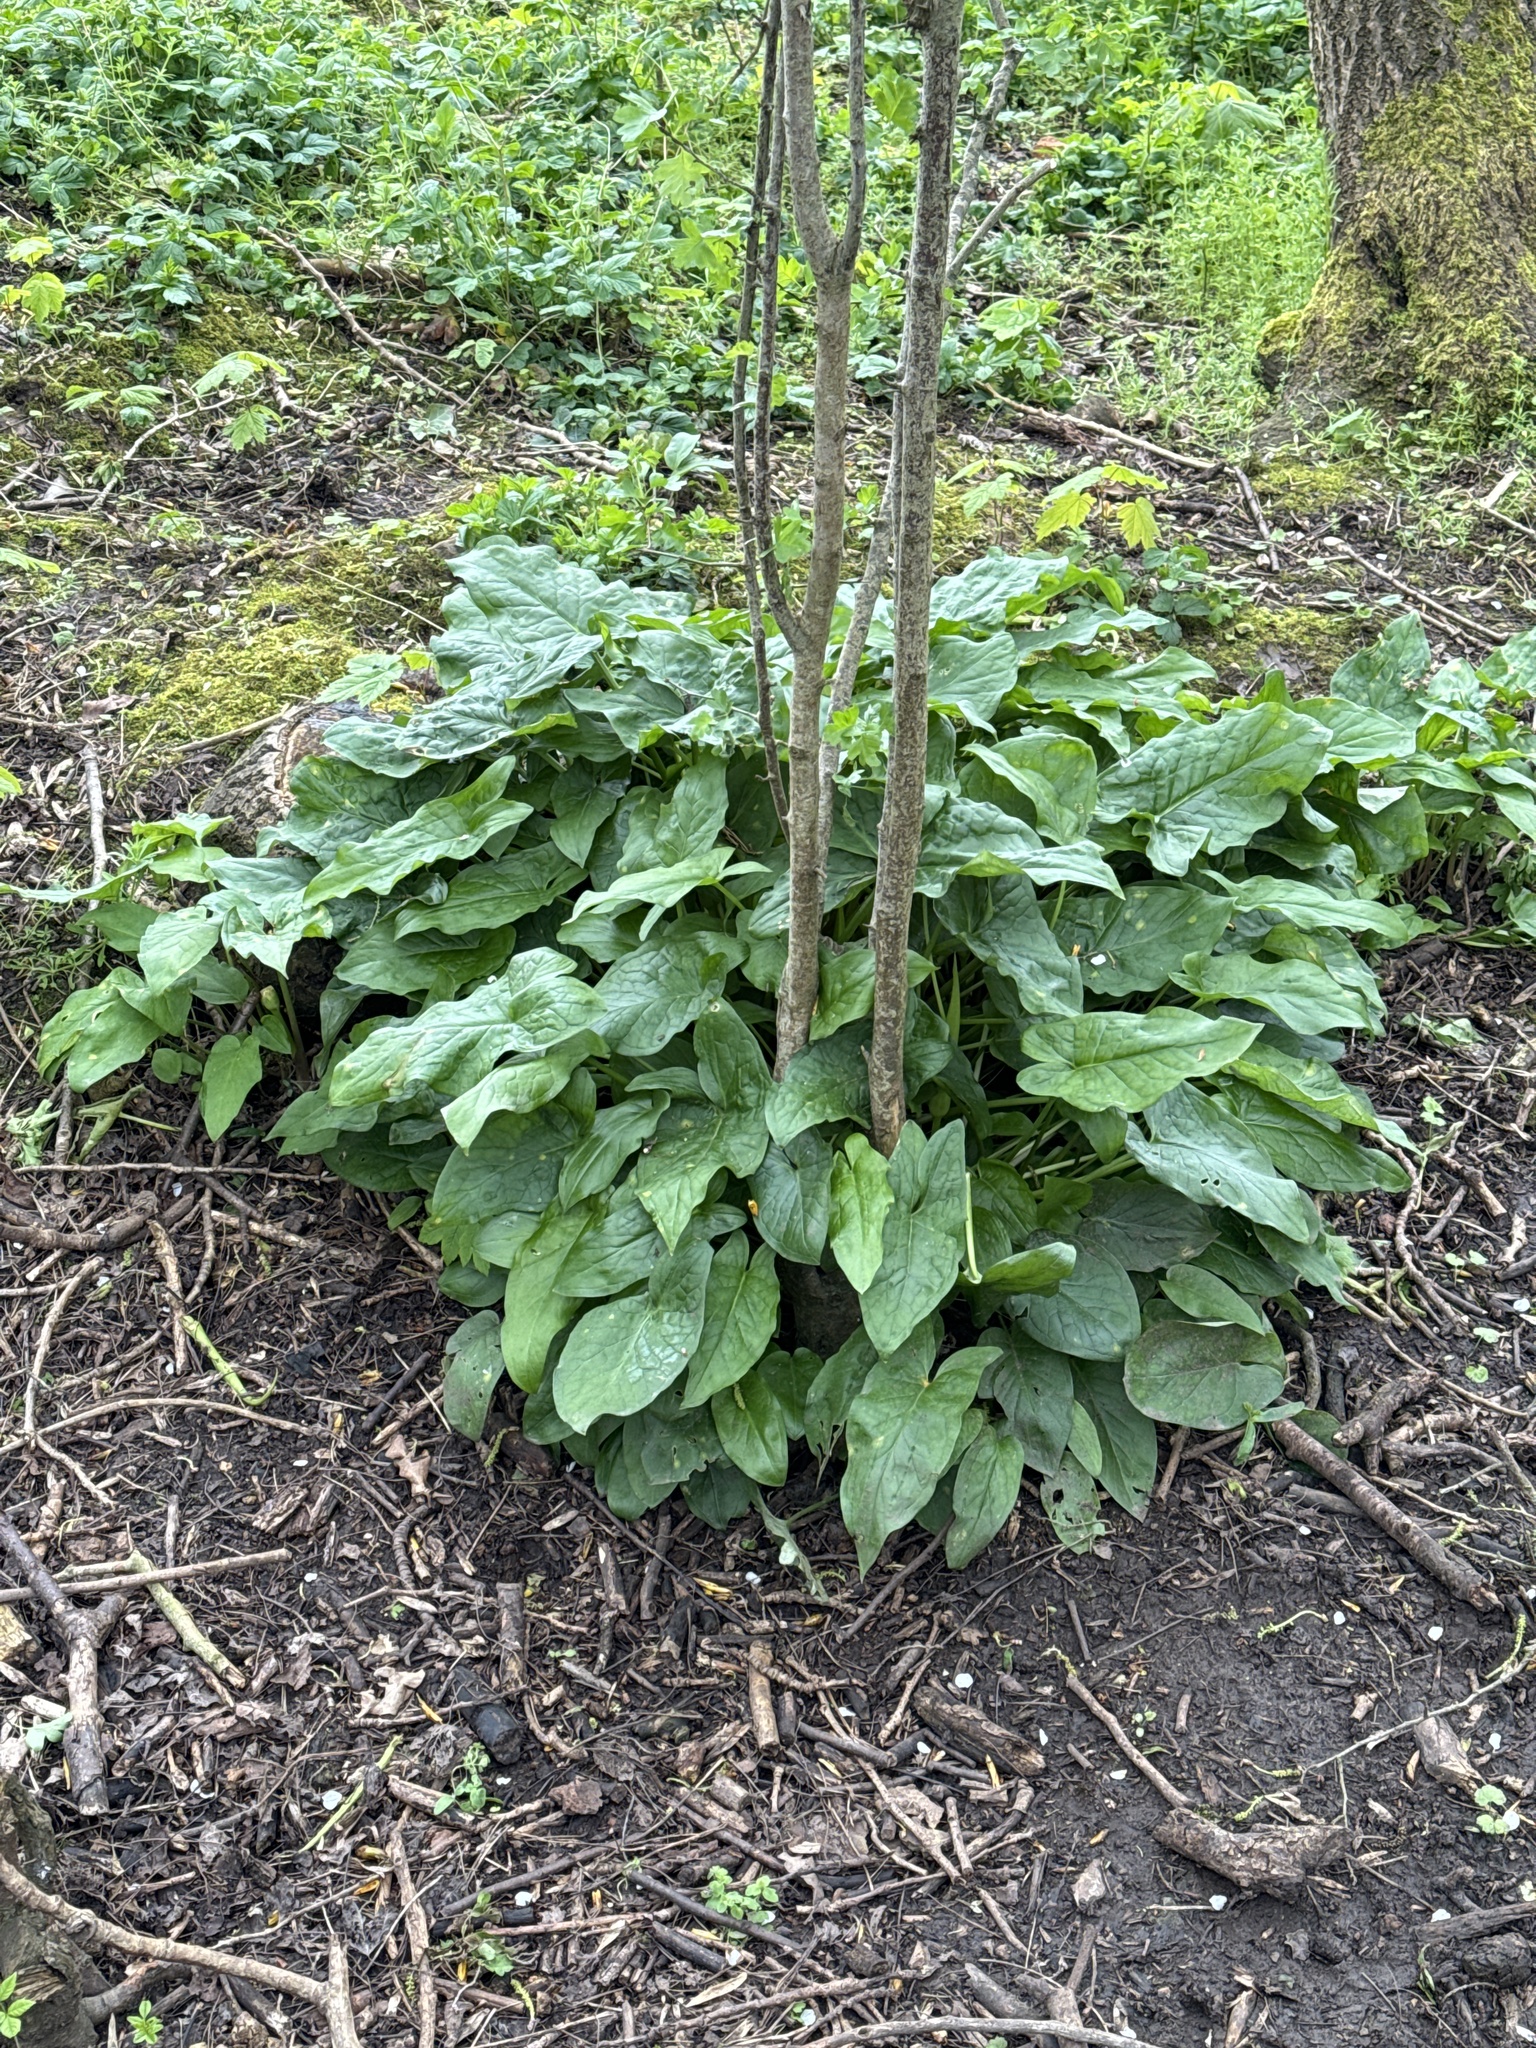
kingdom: Plantae
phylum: Tracheophyta
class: Liliopsida
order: Alismatales
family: Araceae
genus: Arum
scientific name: Arum maculatum
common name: Lords-and-ladies
